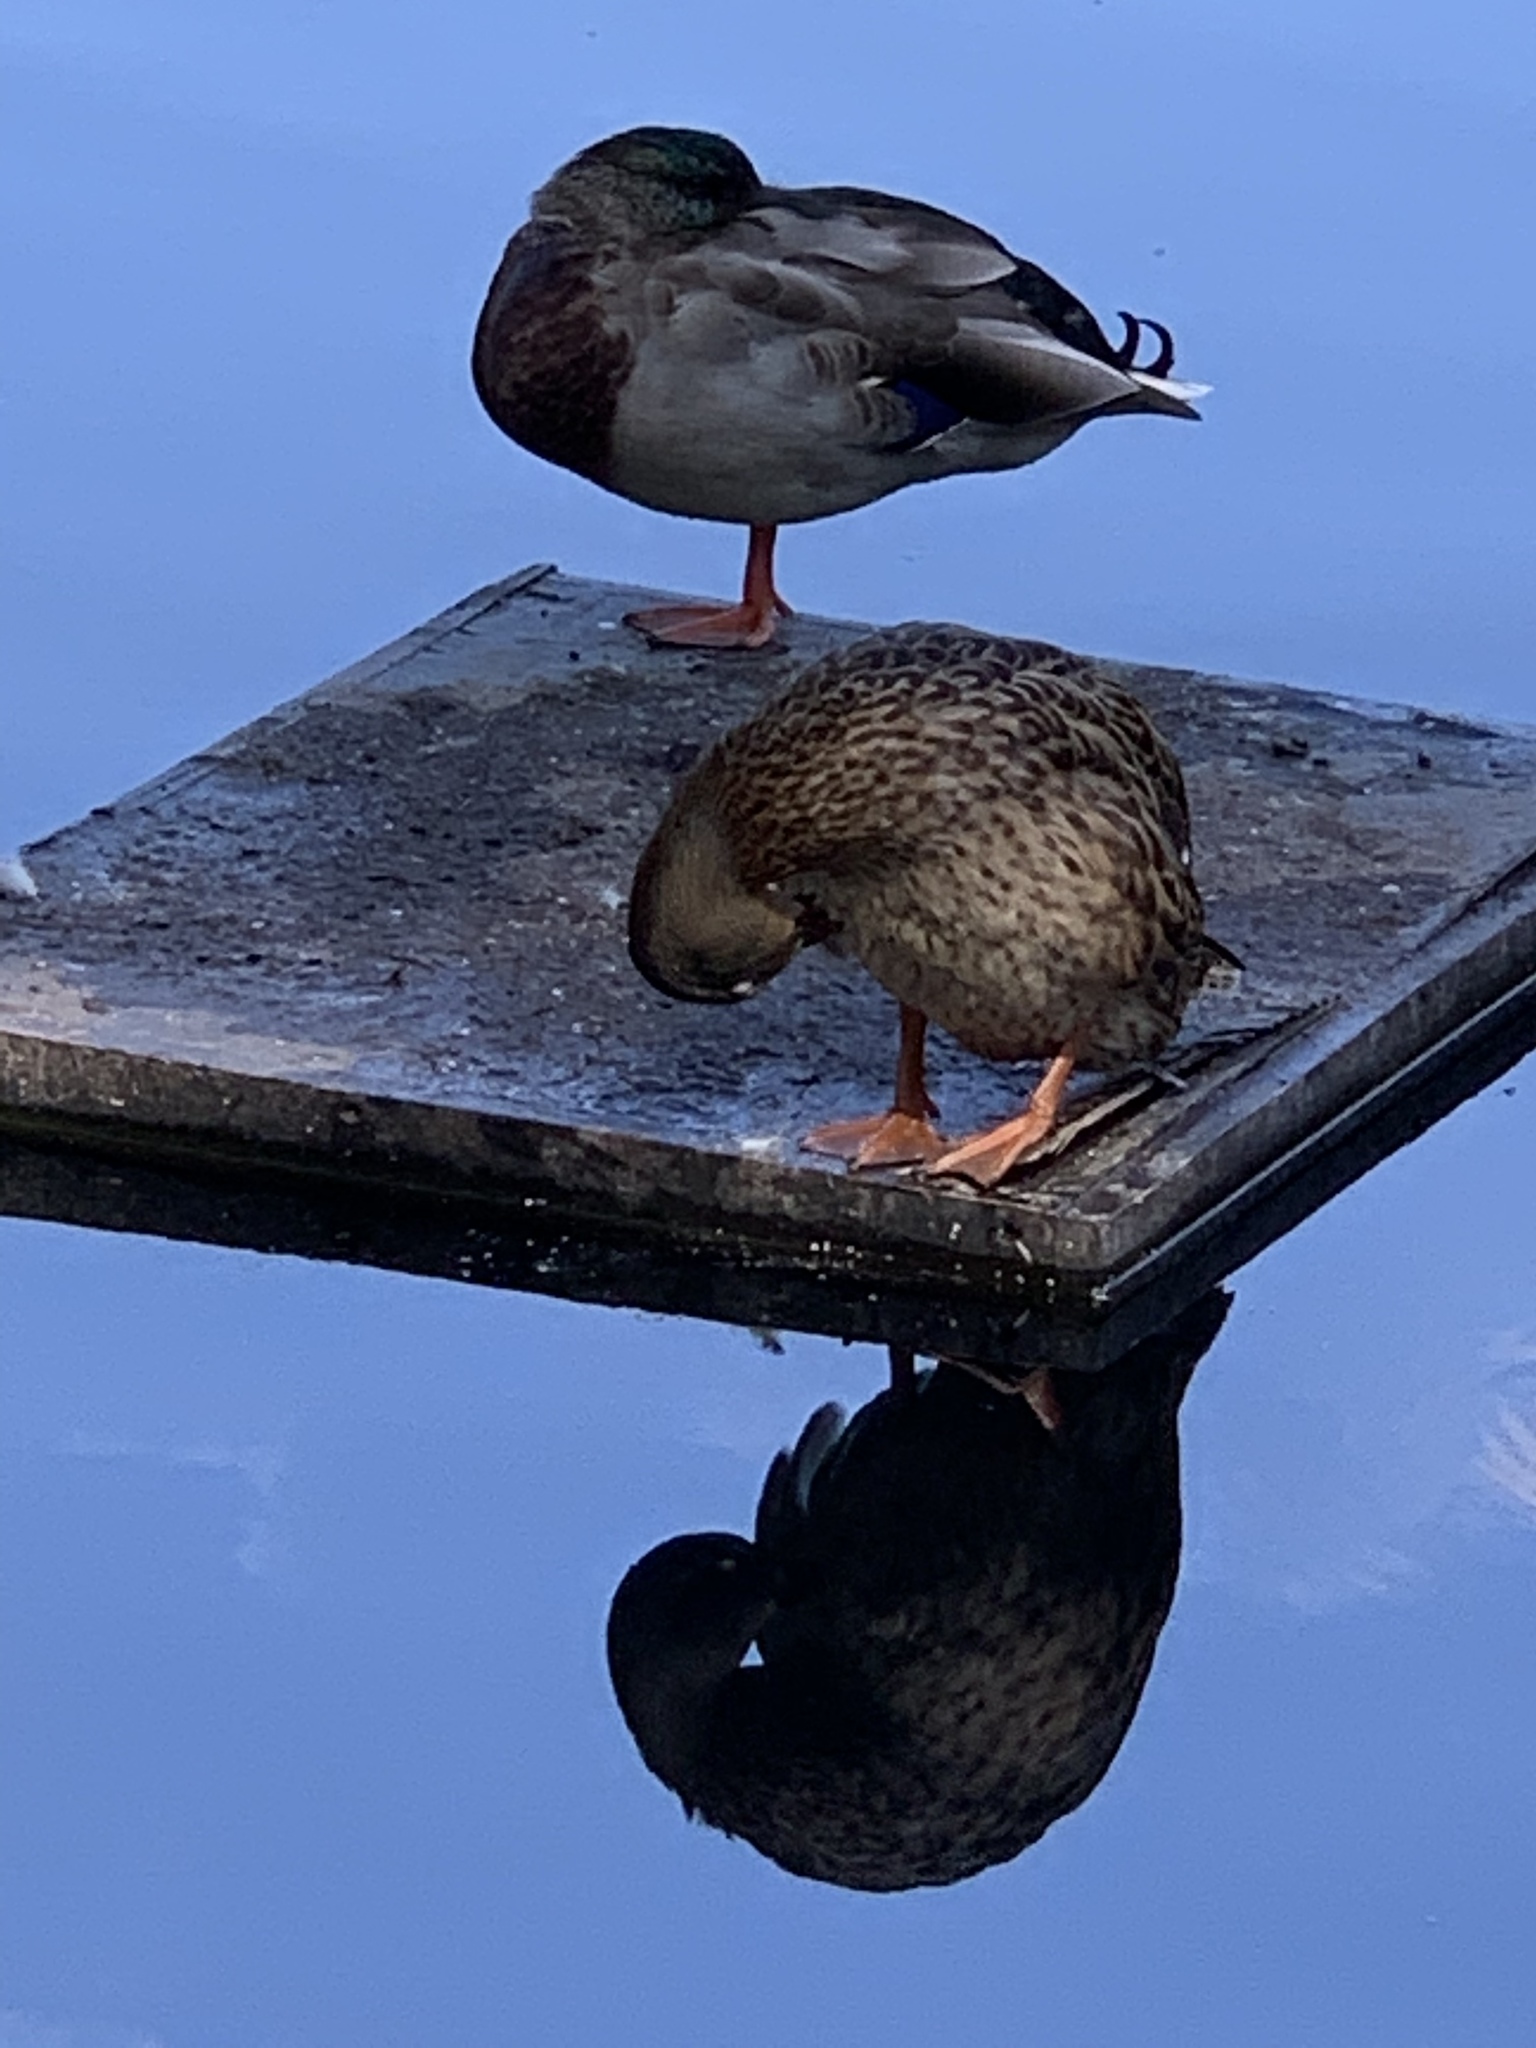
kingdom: Animalia
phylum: Chordata
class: Aves
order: Anseriformes
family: Anatidae
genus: Anas
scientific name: Anas platyrhynchos
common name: Mallard
